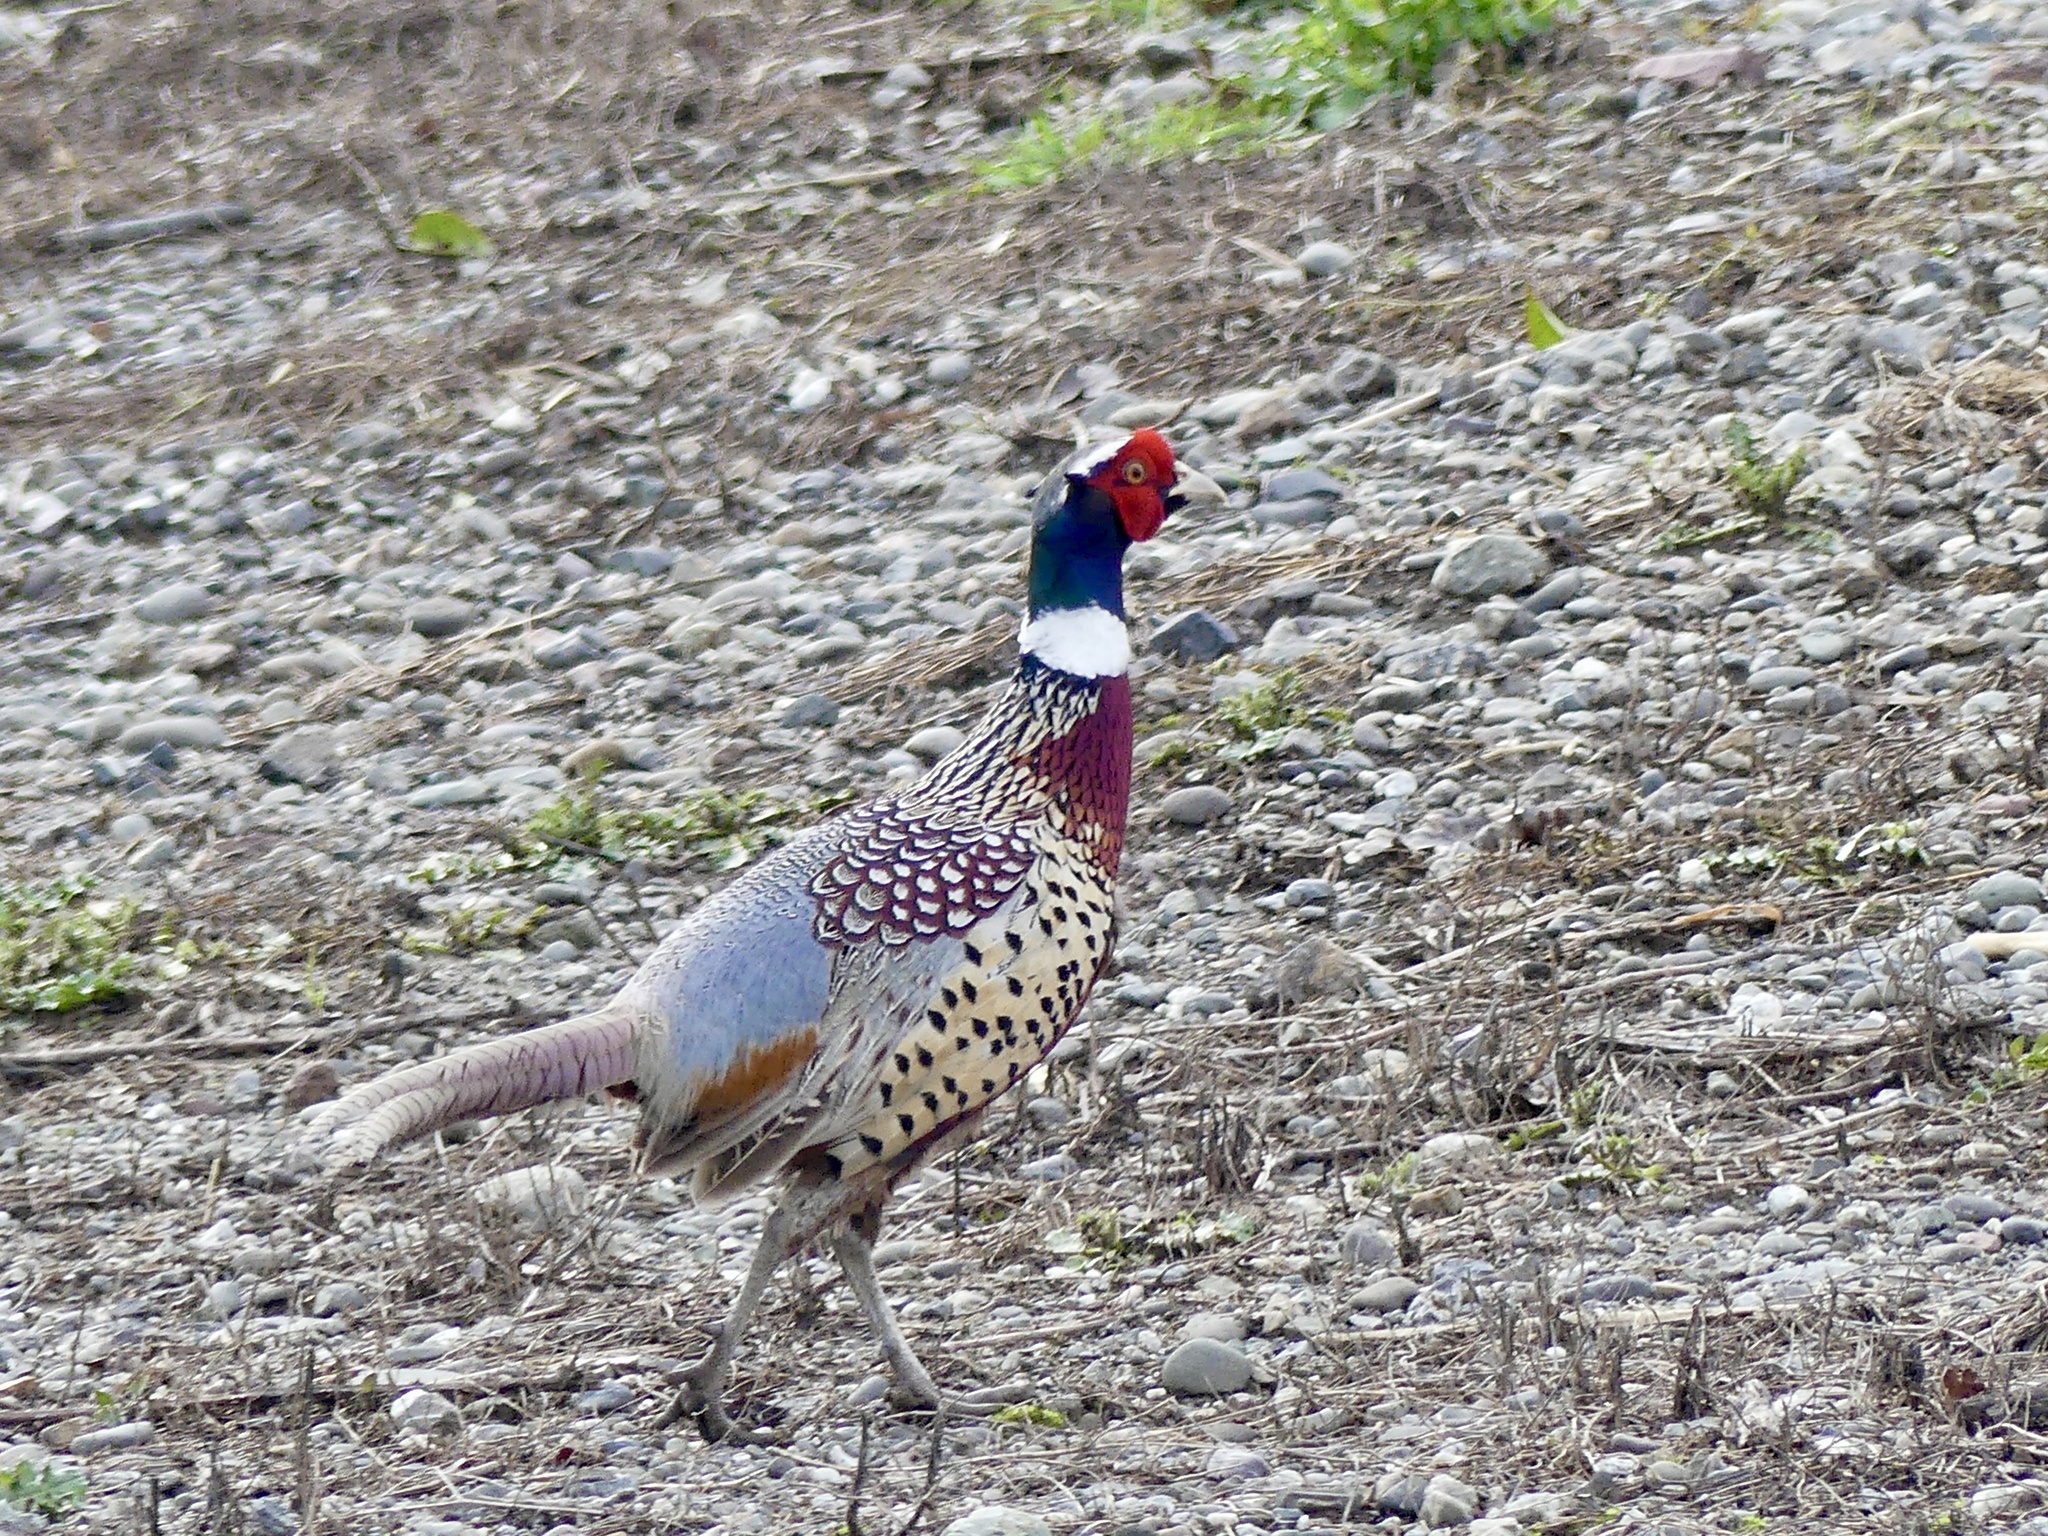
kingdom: Animalia
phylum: Chordata
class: Aves
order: Galliformes
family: Phasianidae
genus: Phasianus
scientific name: Phasianus colchicus
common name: Common pheasant
